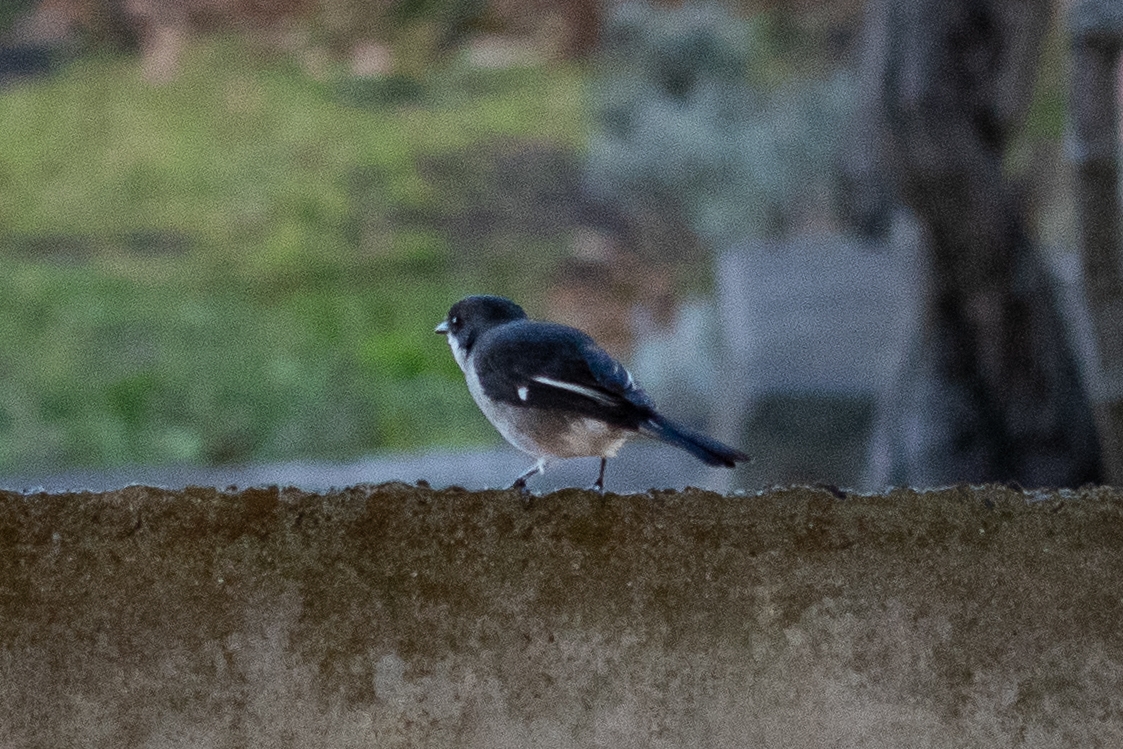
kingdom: Animalia
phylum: Chordata
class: Aves
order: Passeriformes
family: Muscicapidae
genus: Sigelus
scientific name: Sigelus silens
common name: Fiscal flycatcher
